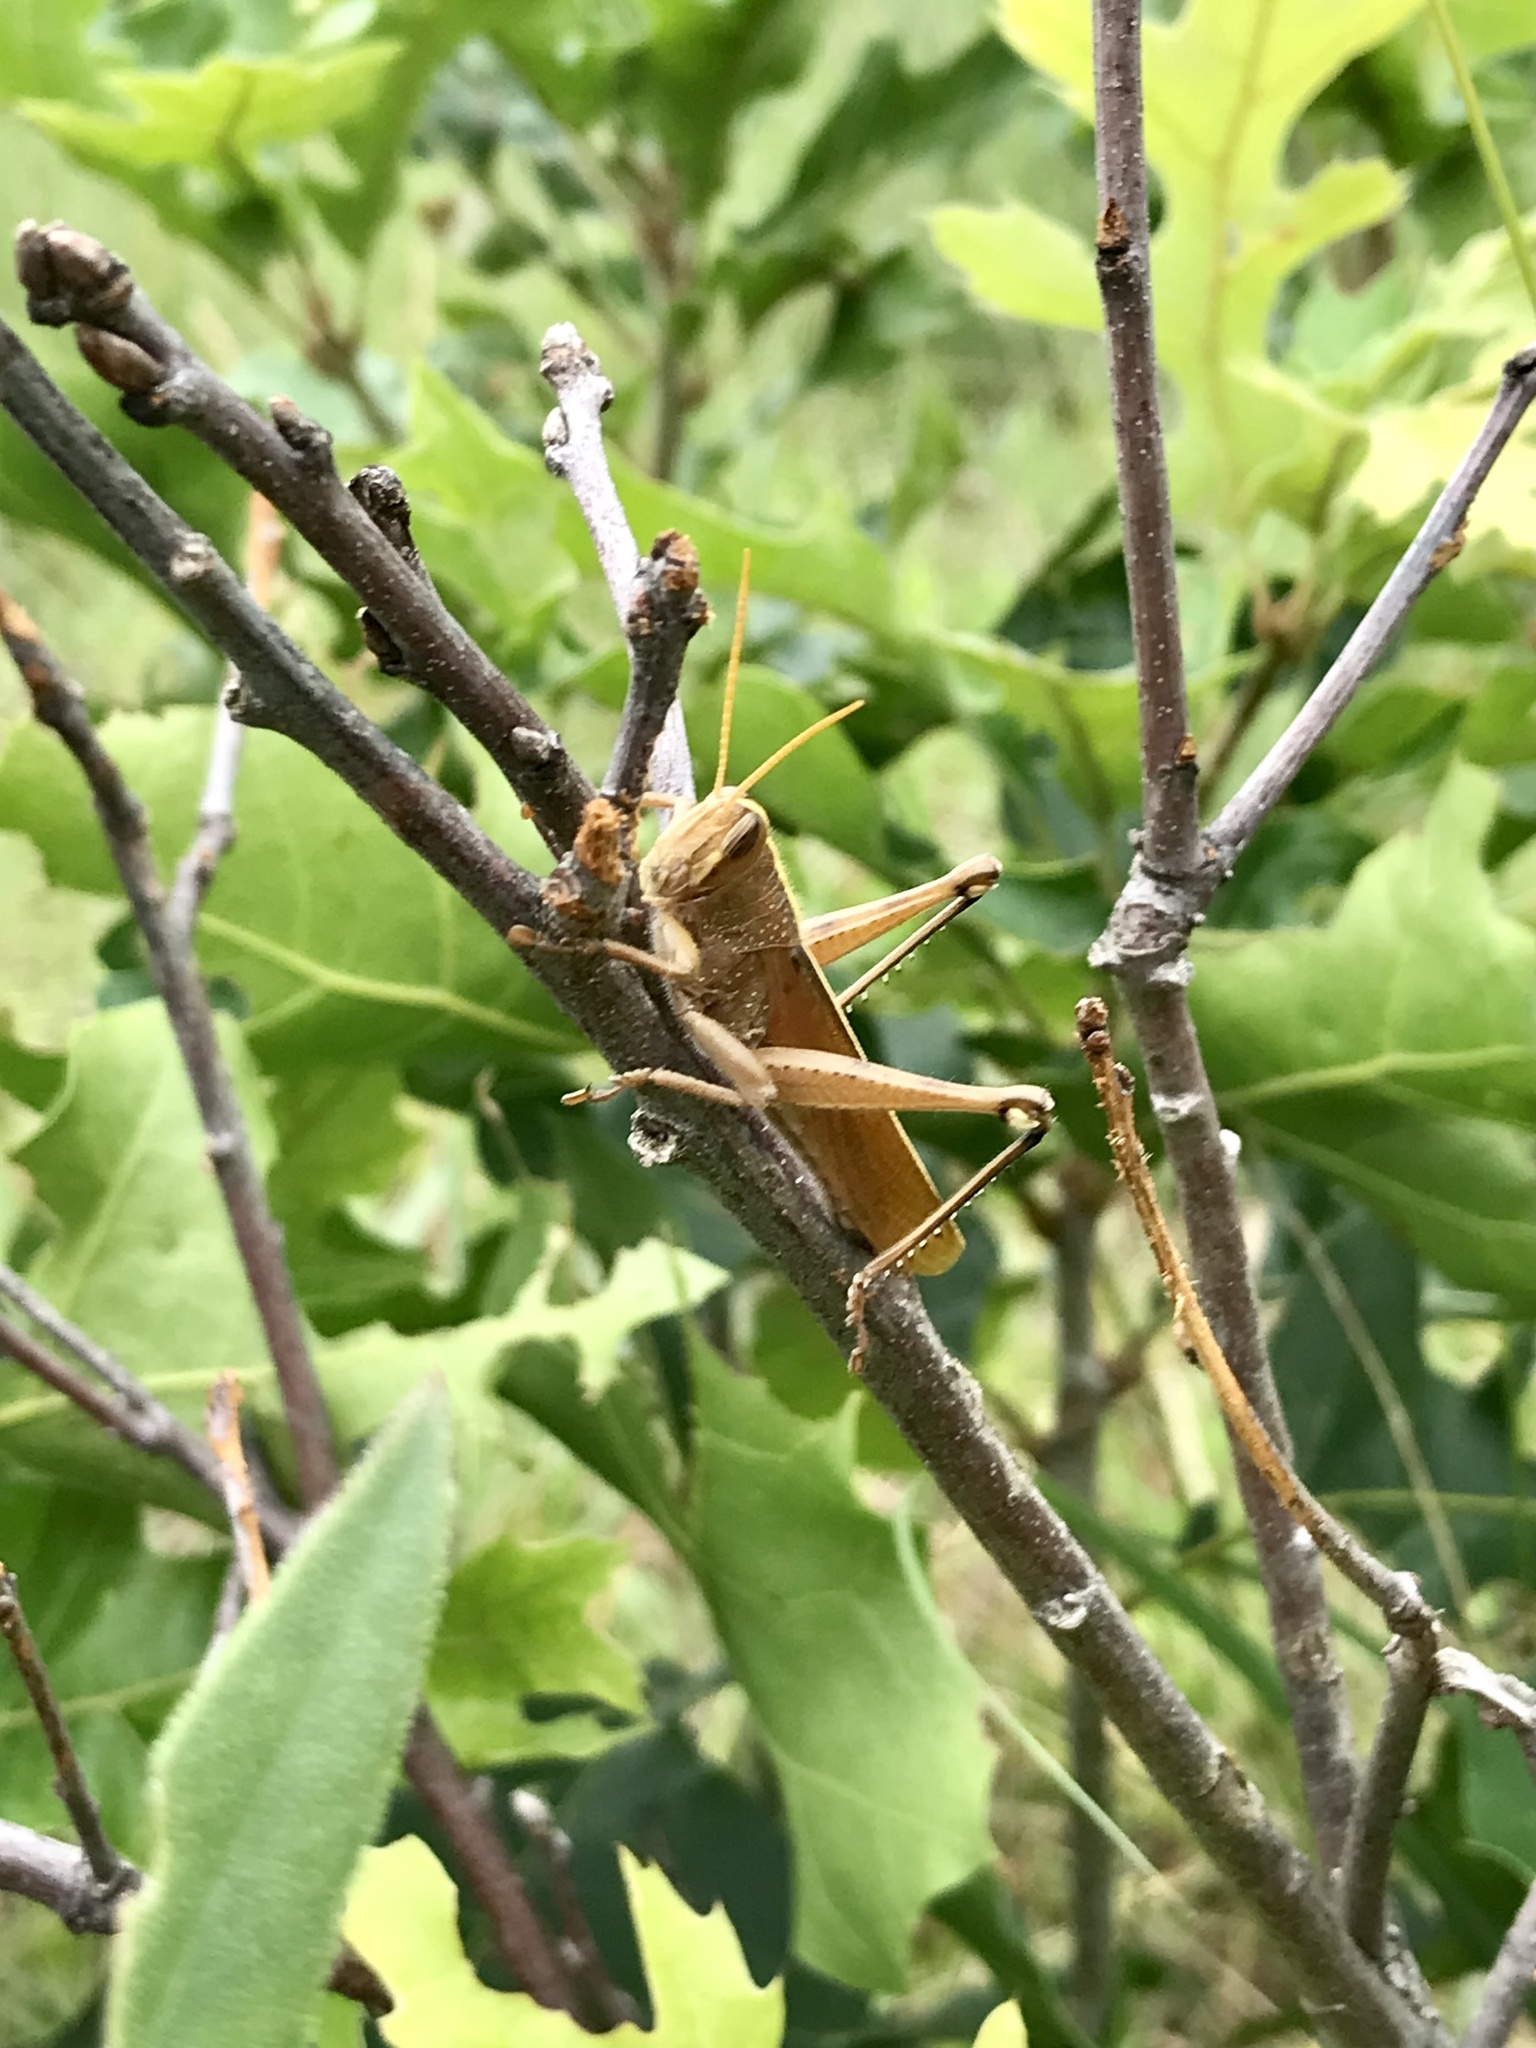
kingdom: Animalia
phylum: Arthropoda
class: Insecta
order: Orthoptera
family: Acrididae
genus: Schistocerca
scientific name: Schistocerca lineata
